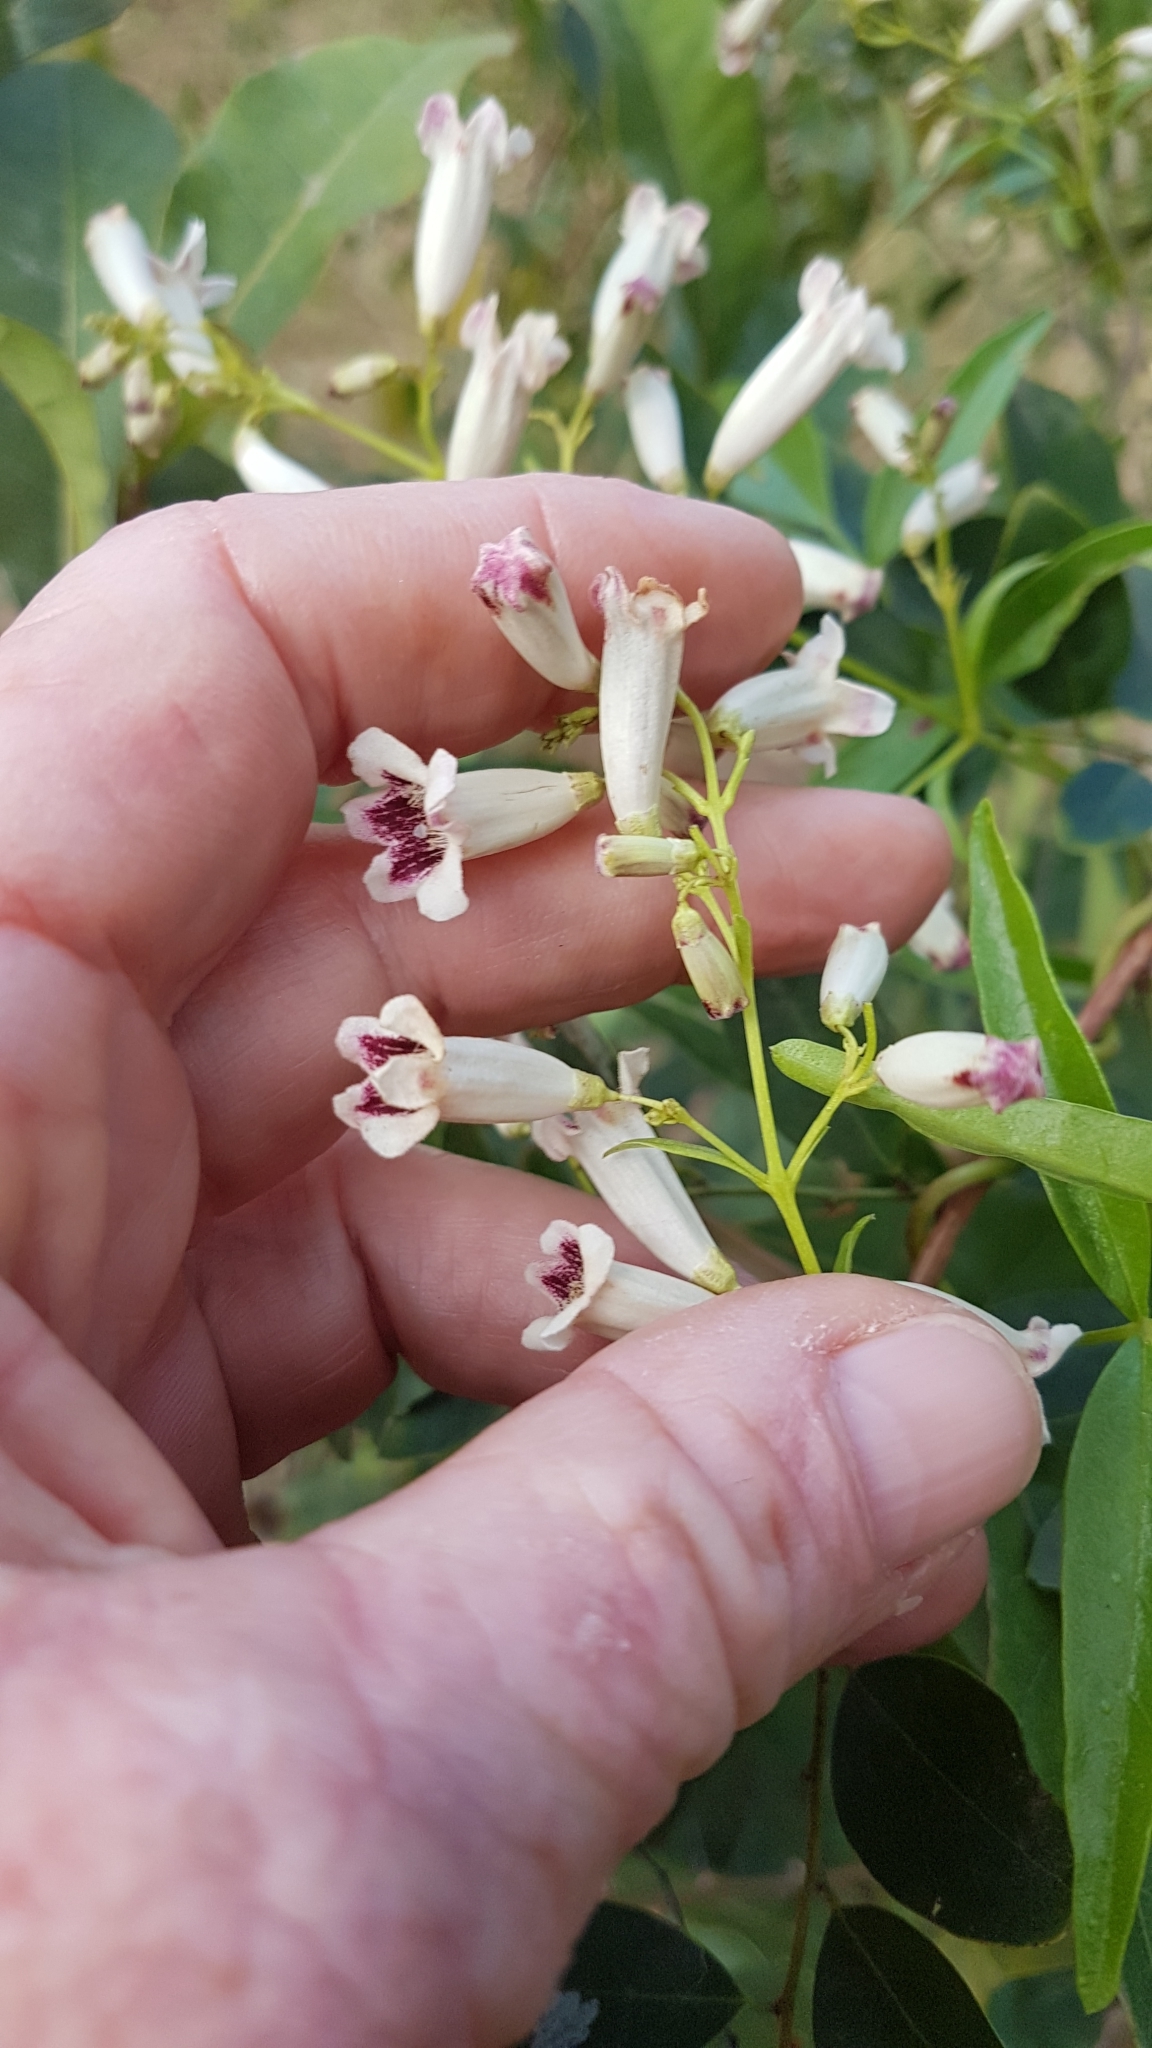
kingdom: Plantae
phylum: Tracheophyta
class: Magnoliopsida
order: Lamiales
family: Bignoniaceae
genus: Pandorea
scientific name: Pandorea pandorana
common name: Wonga-wonga-vine
